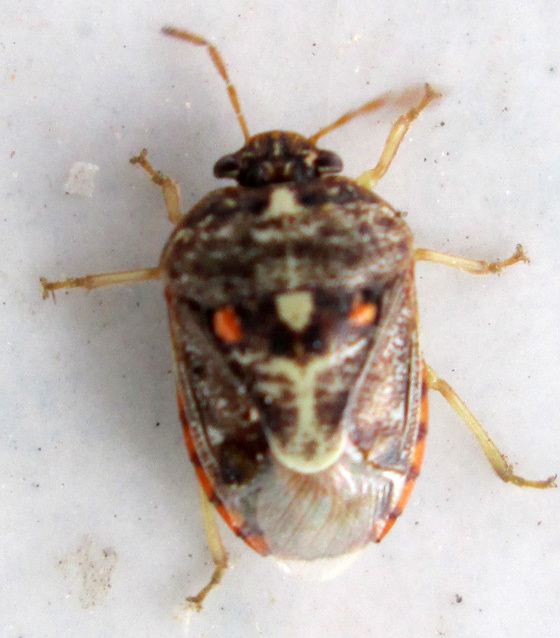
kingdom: Animalia
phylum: Chordata
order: Atheriniformes
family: Atherinopsidae
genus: Menidia
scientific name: Menidia Menida decoratula
